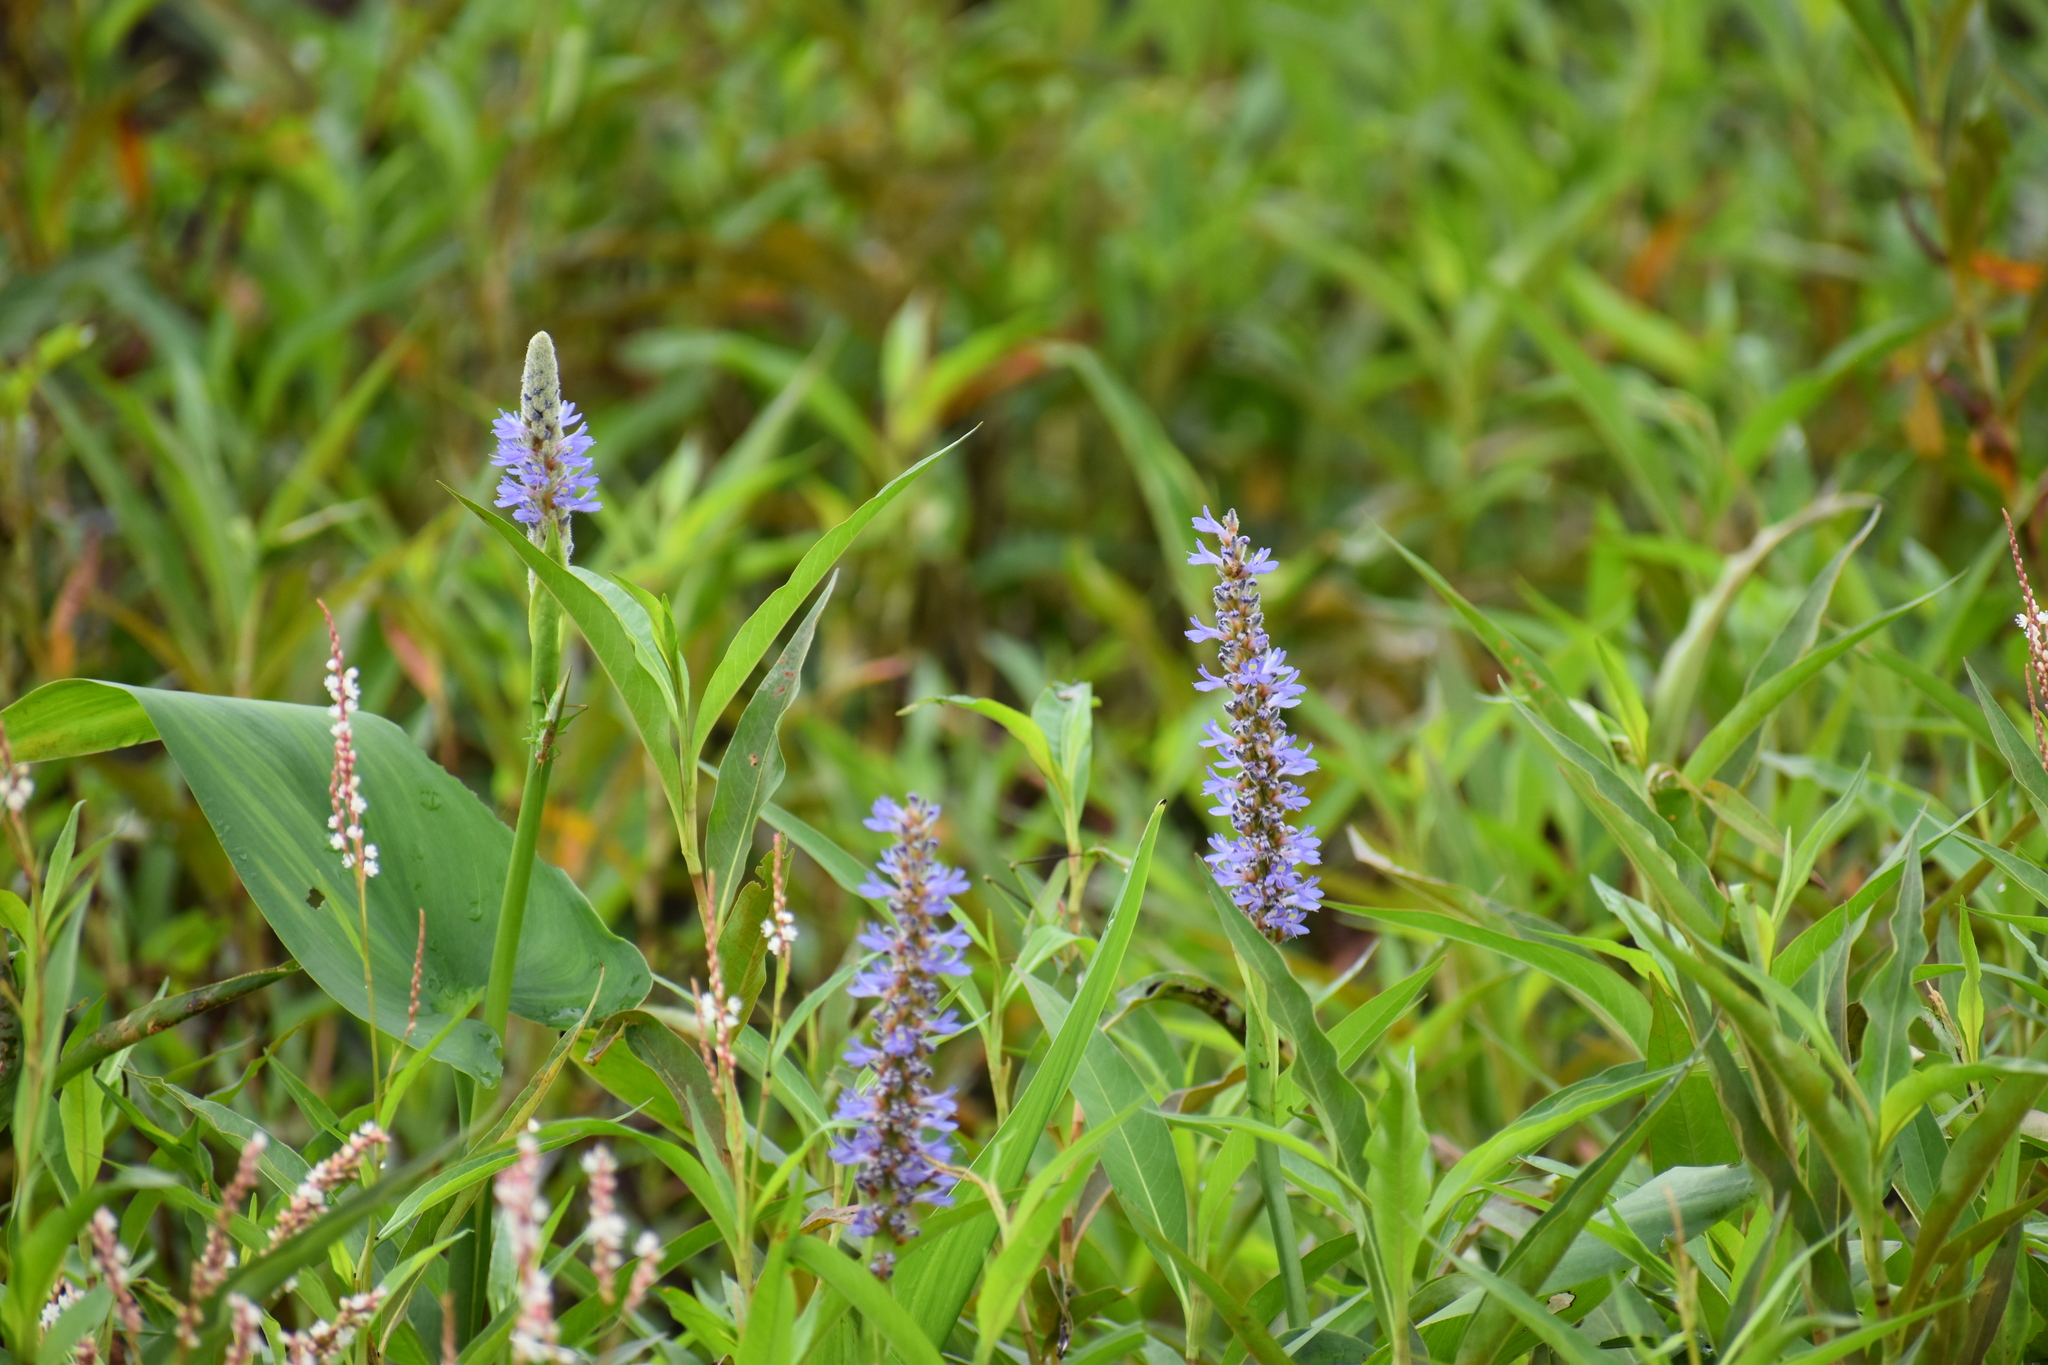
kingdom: Plantae
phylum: Tracheophyta
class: Liliopsida
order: Commelinales
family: Pontederiaceae
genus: Pontederia
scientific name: Pontederia cordata
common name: Pickerelweed
